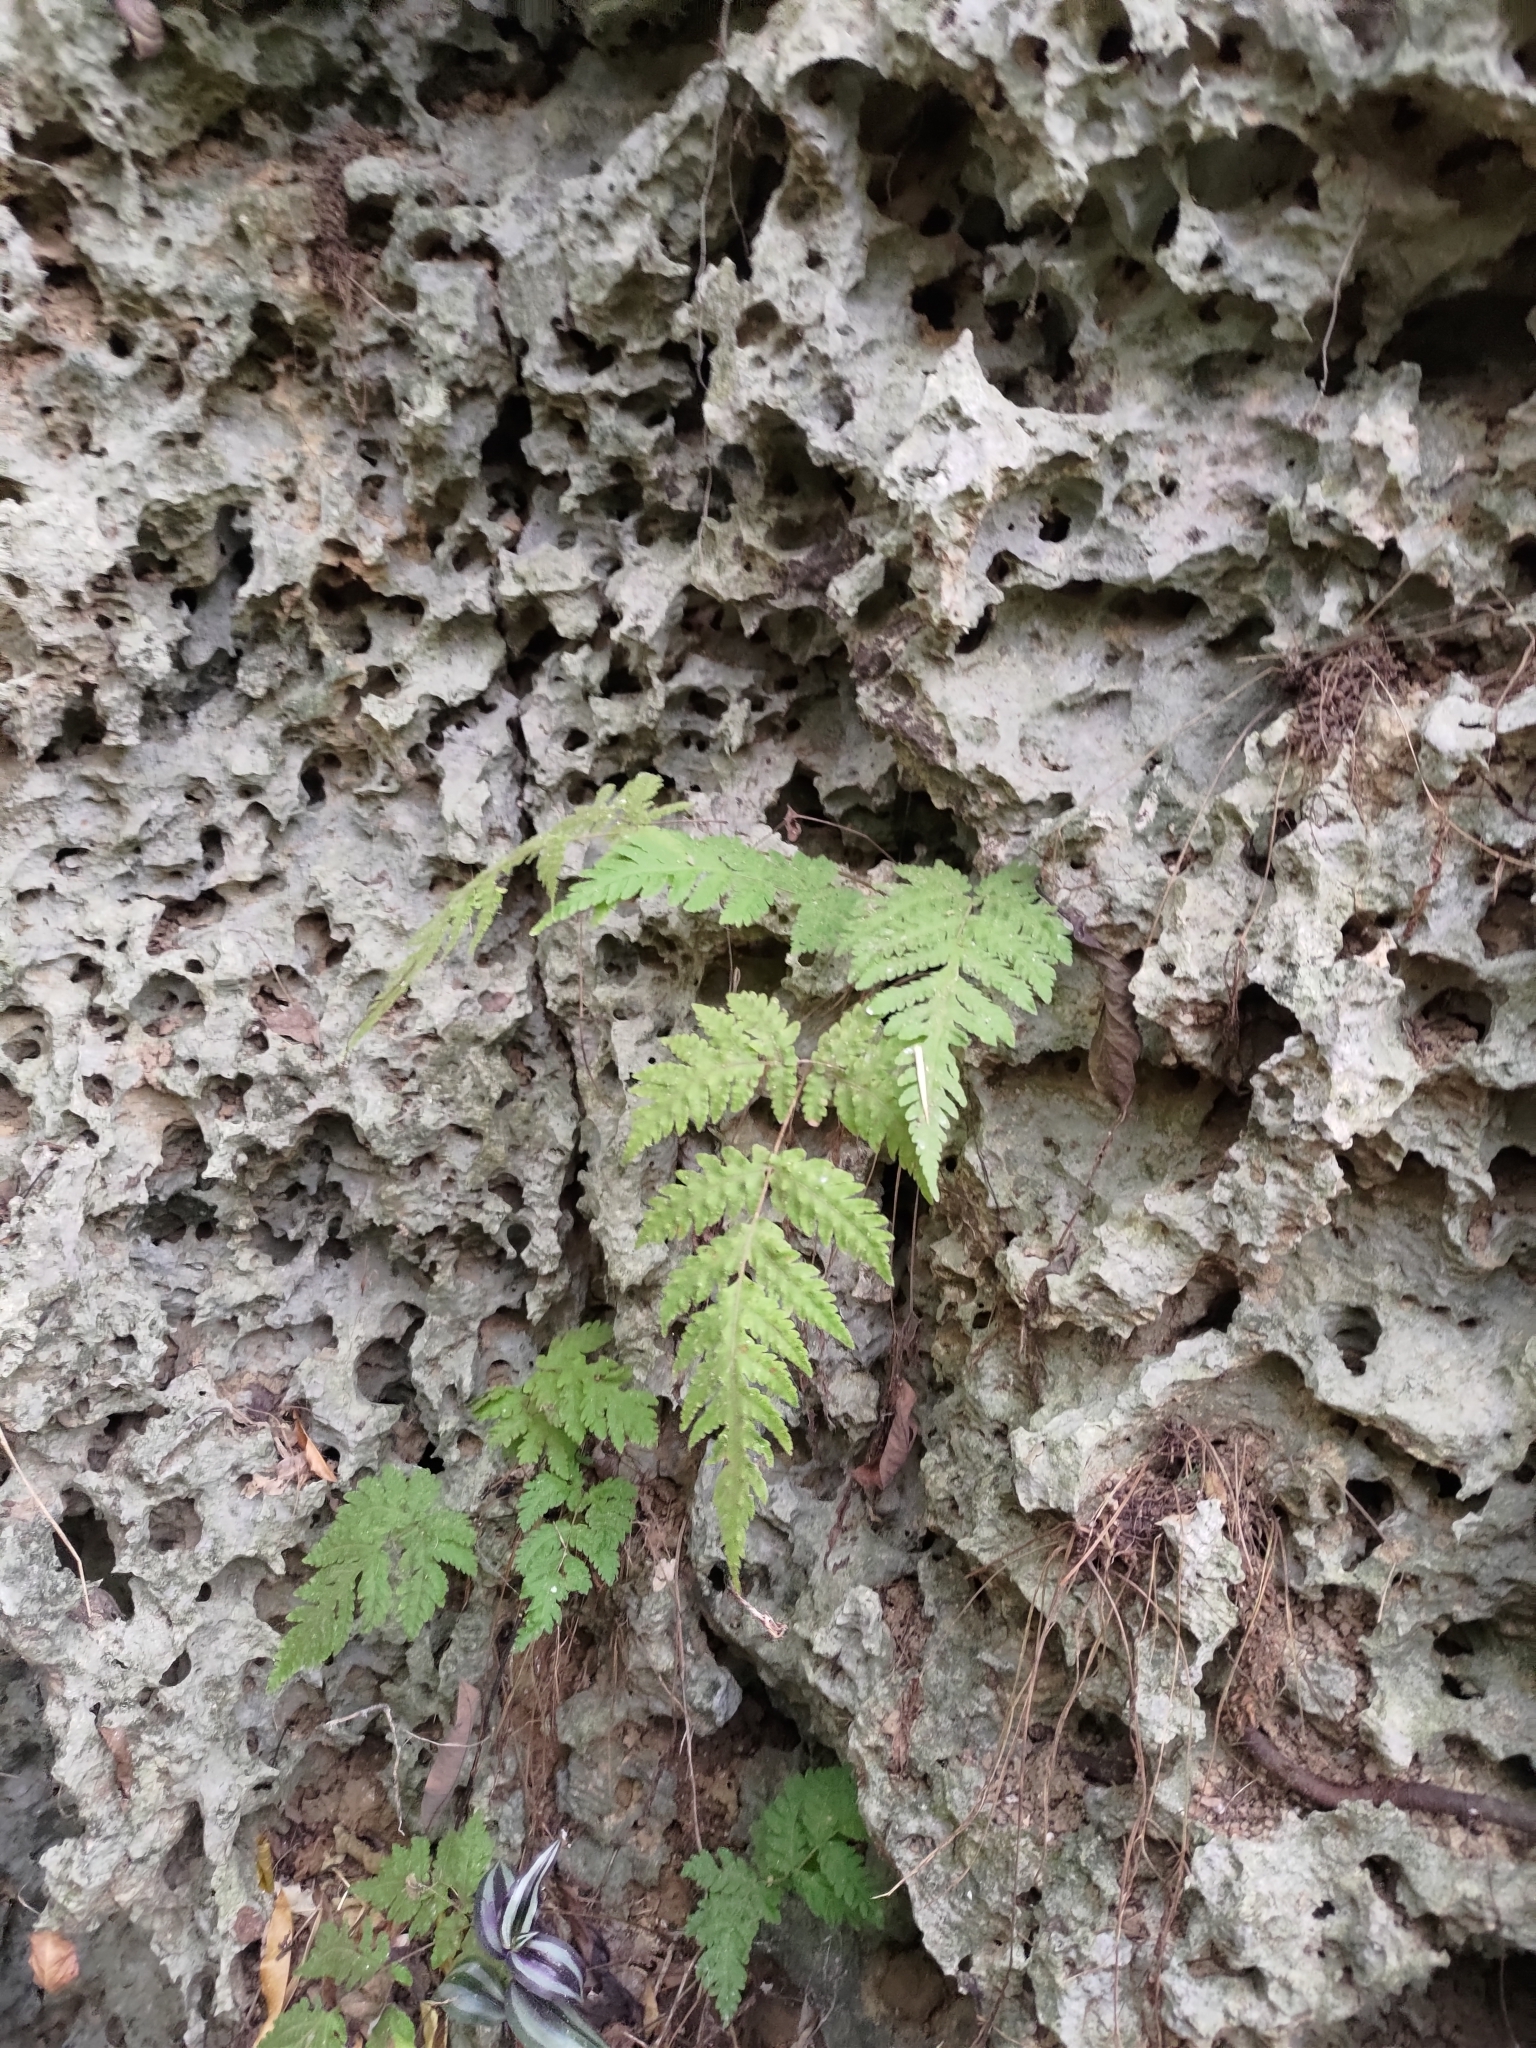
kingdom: Plantae
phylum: Tracheophyta
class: Polypodiopsida
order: Polypodiales
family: Tectariaceae
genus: Tectaria
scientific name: Tectaria membranacea
